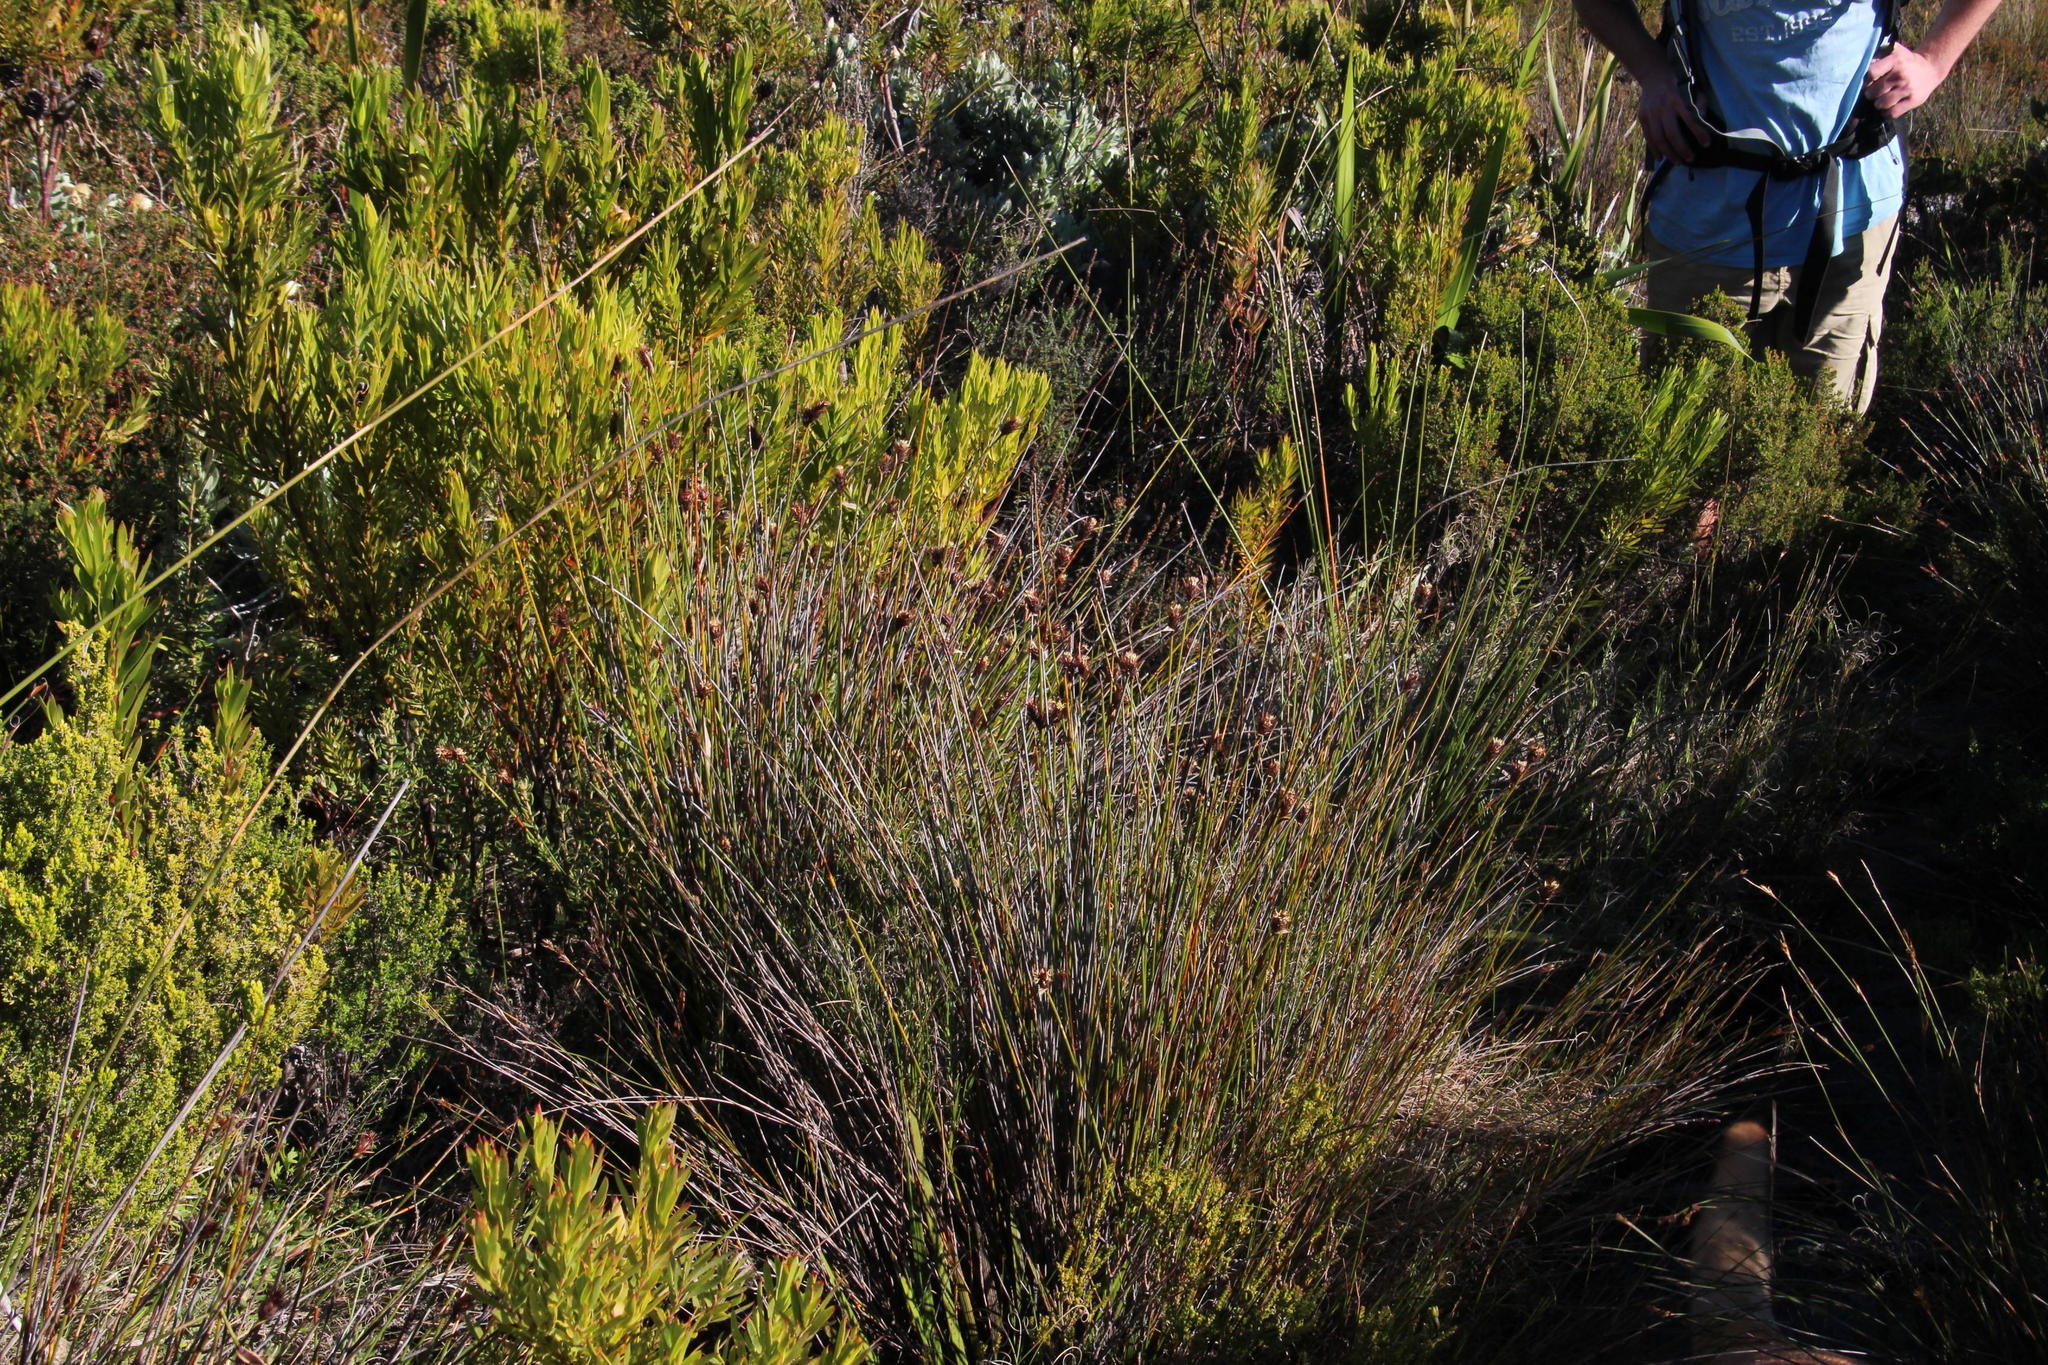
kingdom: Plantae
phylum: Tracheophyta
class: Liliopsida
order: Poales
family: Restionaceae
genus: Hypodiscus
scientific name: Hypodiscus aristatus
